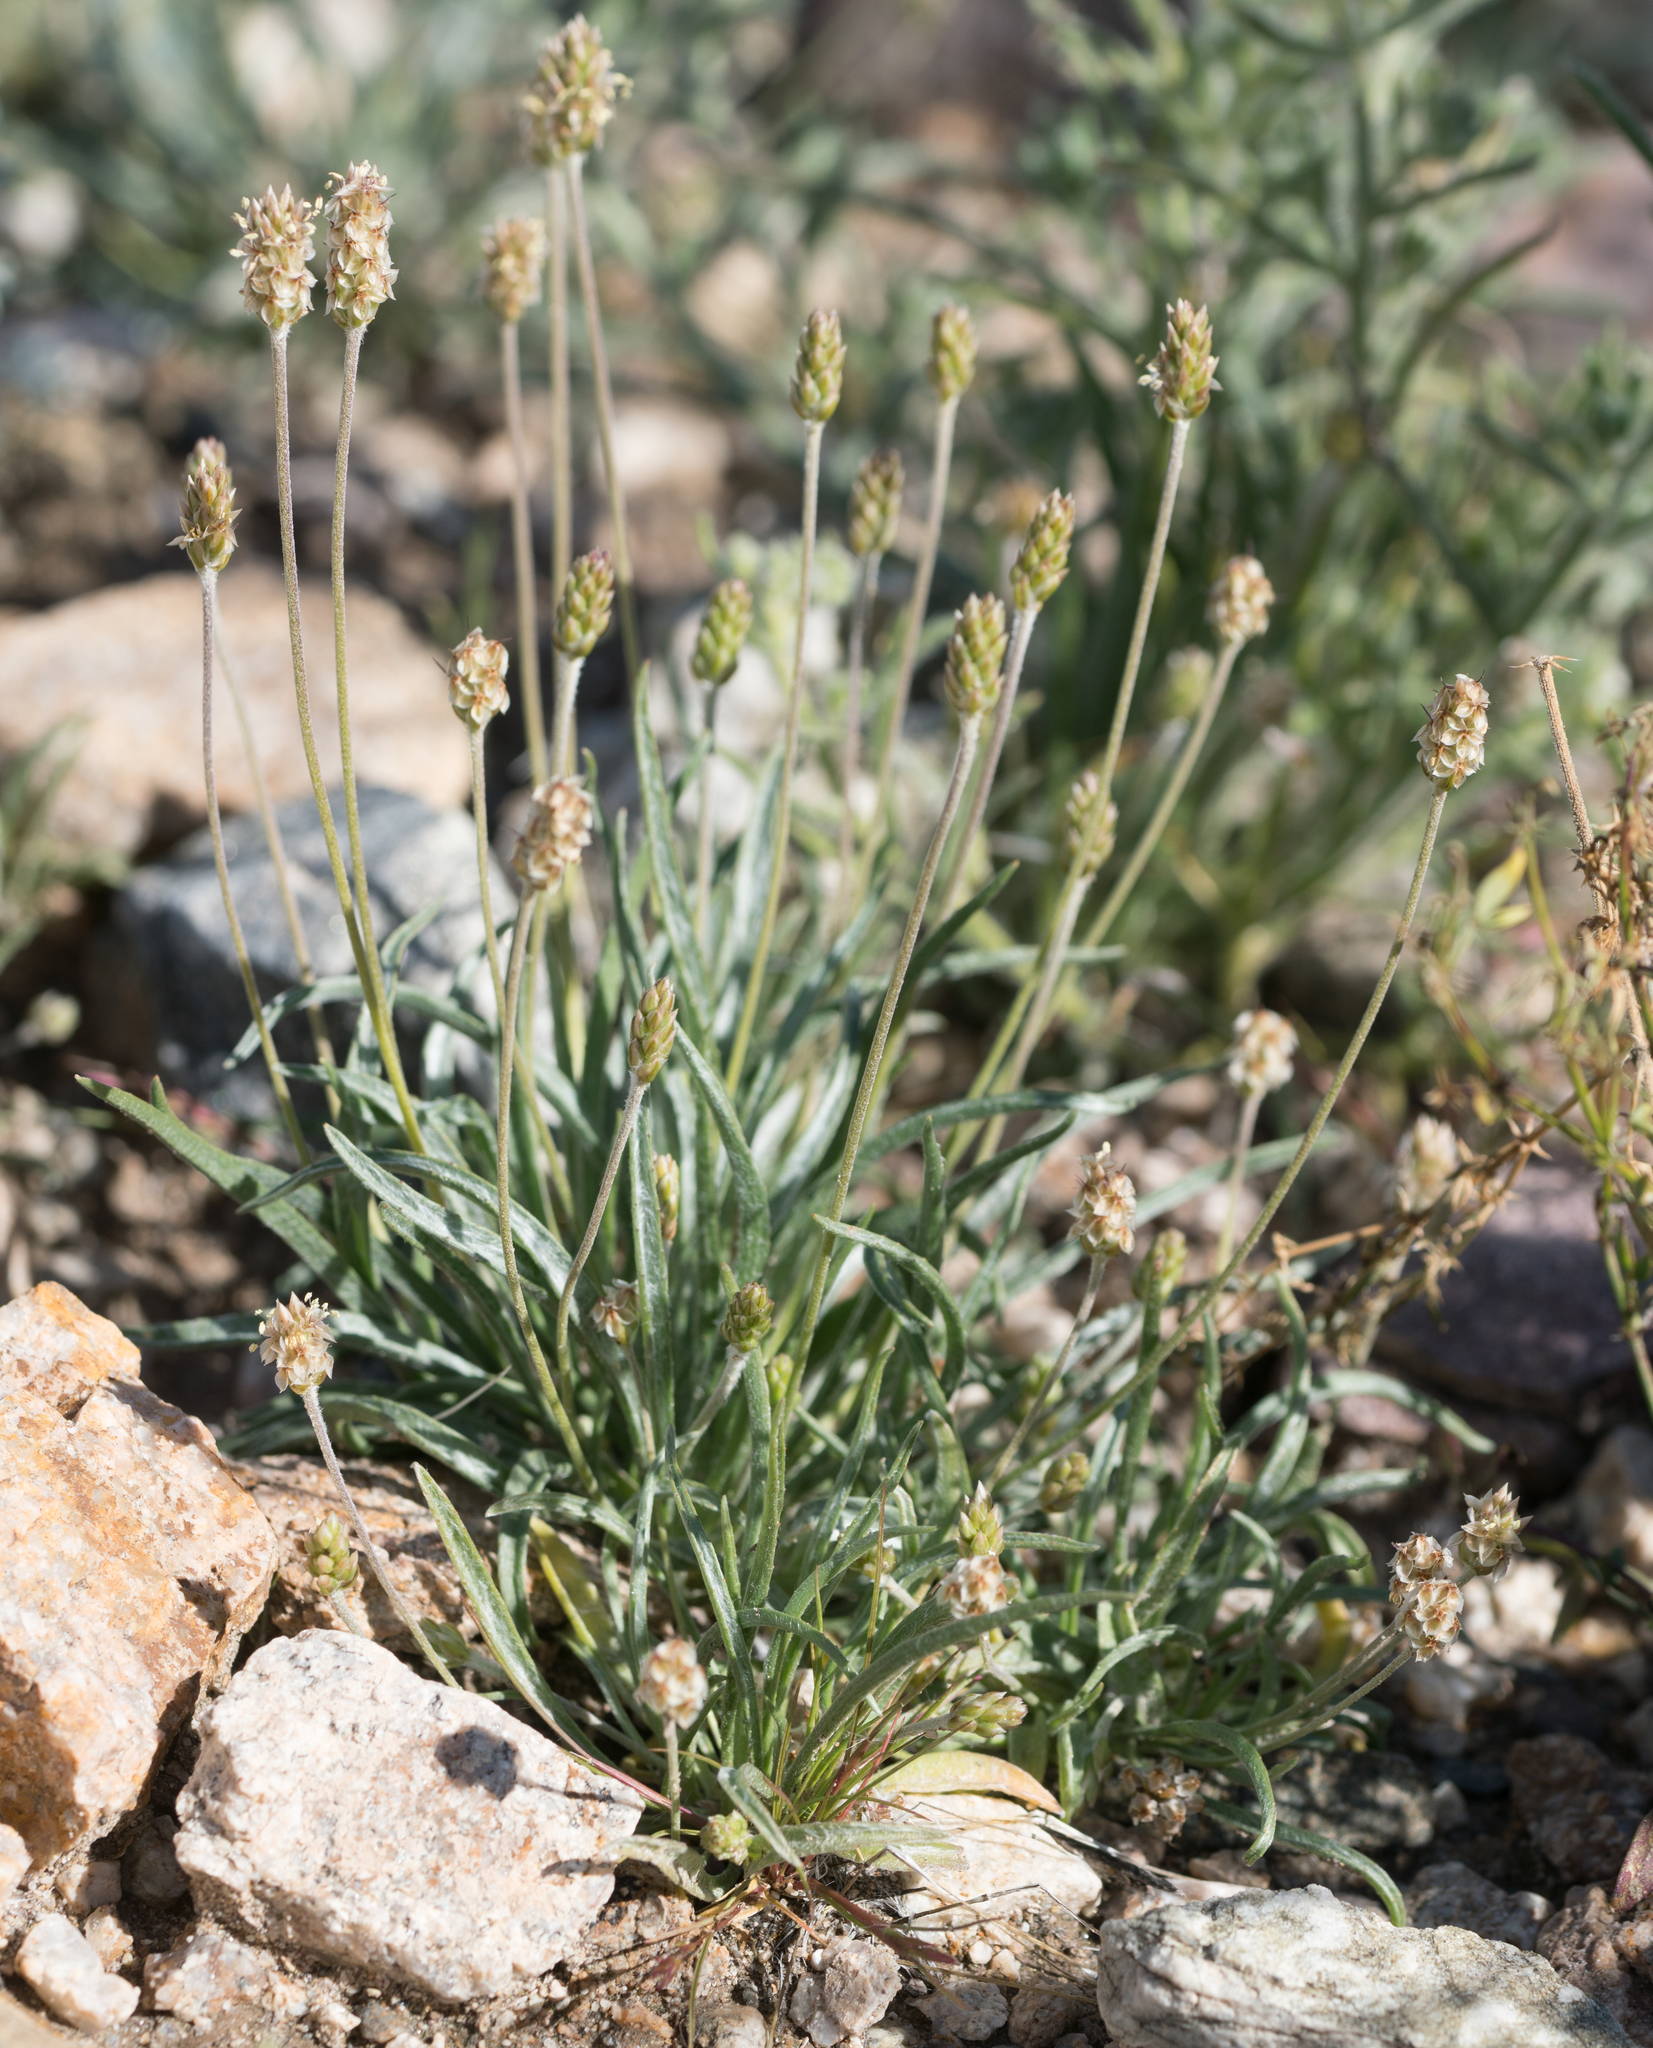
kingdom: Plantae
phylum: Tracheophyta
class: Magnoliopsida
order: Lamiales
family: Plantaginaceae
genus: Plantago
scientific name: Plantago ovata
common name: Blond plantain
